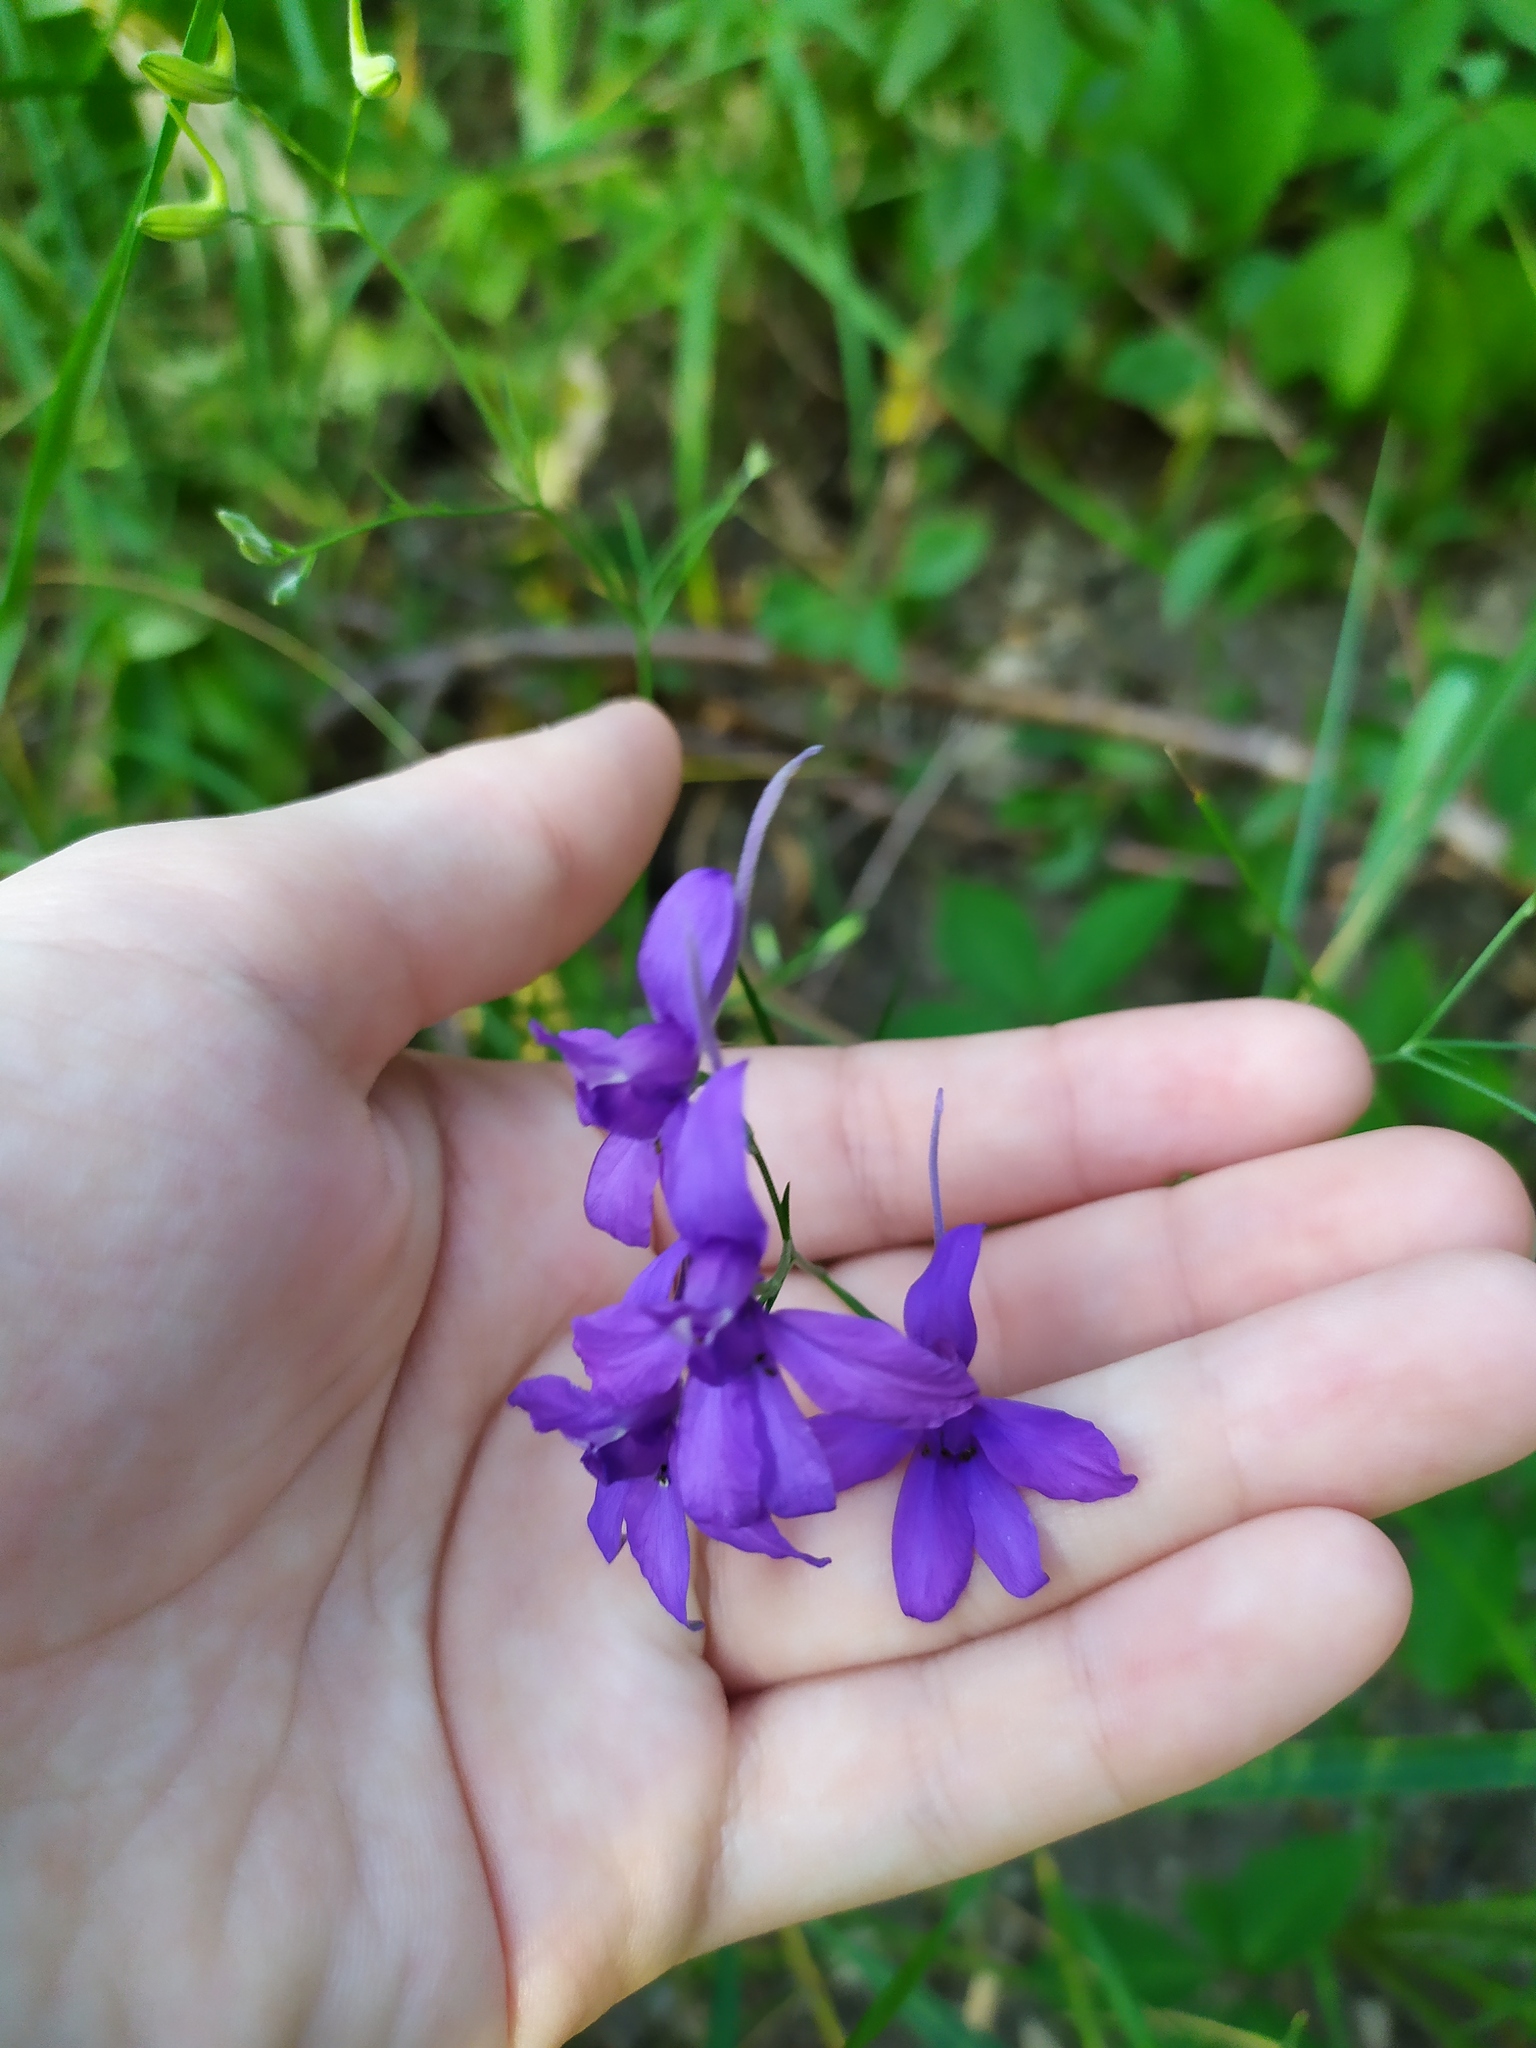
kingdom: Plantae
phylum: Tracheophyta
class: Magnoliopsida
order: Ranunculales
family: Ranunculaceae
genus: Delphinium
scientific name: Delphinium consolida
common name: Branching larkspur
